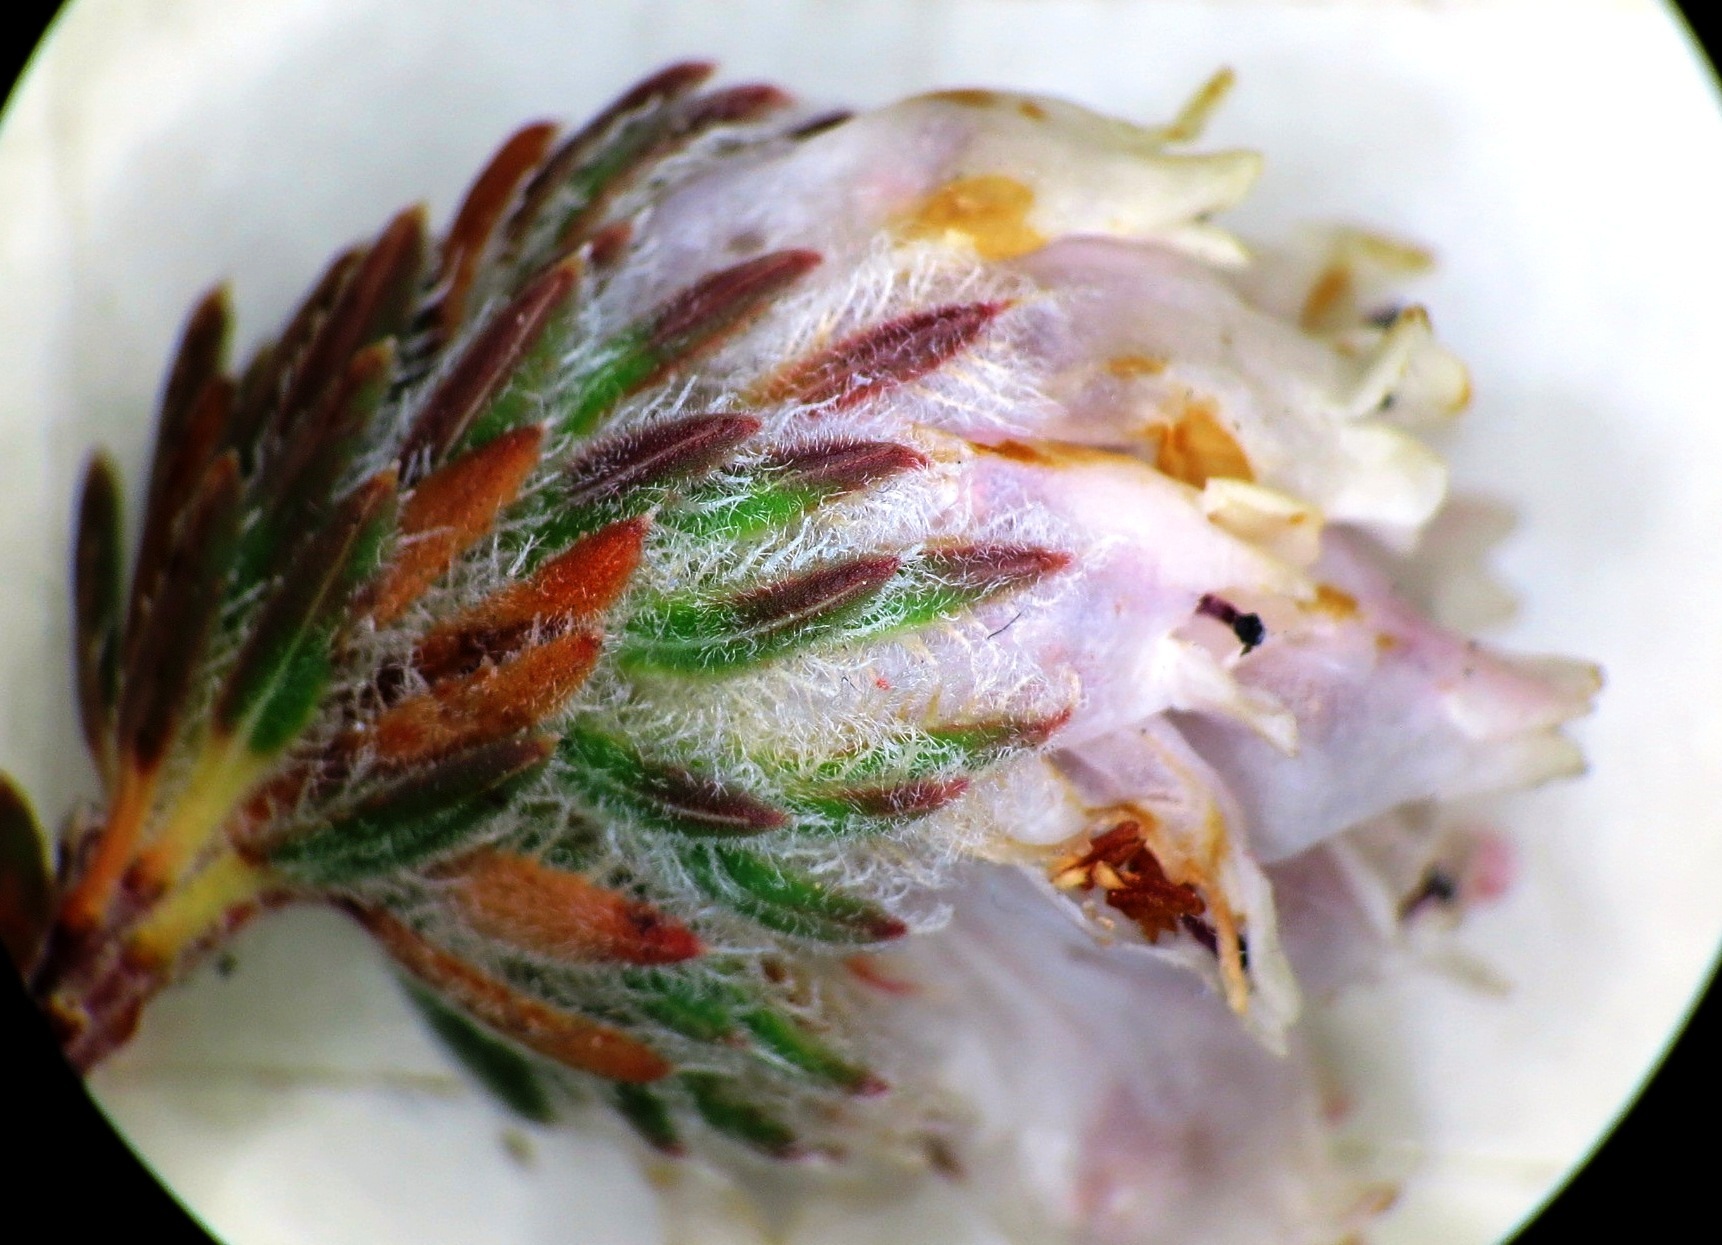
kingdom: Plantae
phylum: Tracheophyta
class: Magnoliopsida
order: Ericales
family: Ericaceae
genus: Erica
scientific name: Erica maderi
